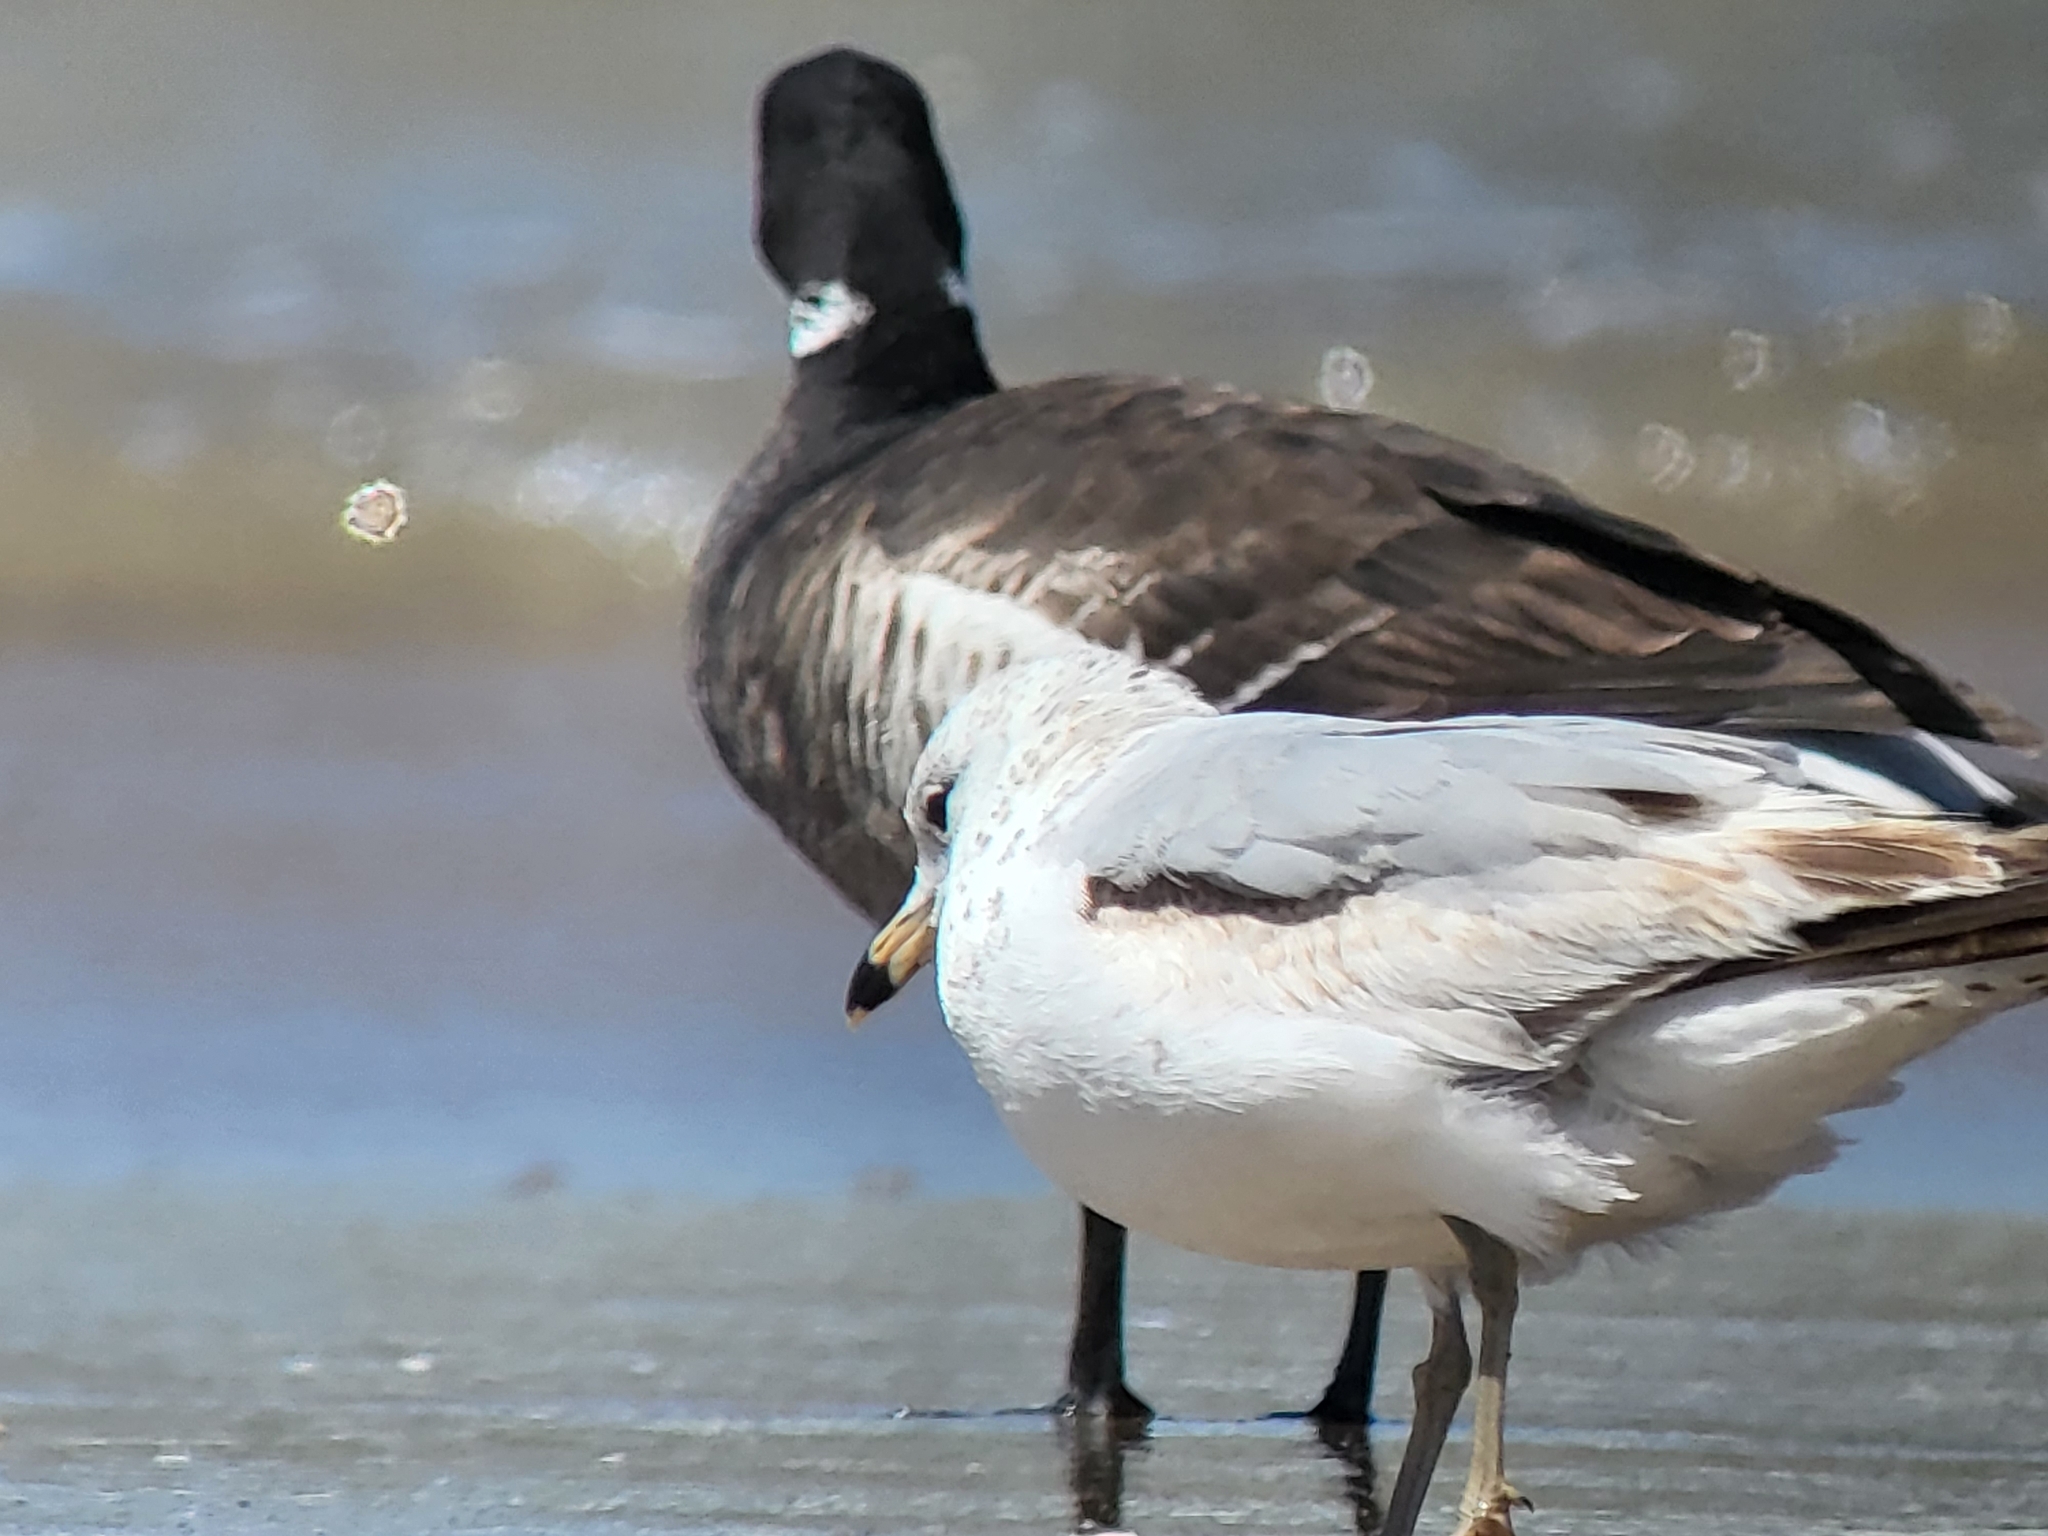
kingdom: Animalia
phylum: Chordata
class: Aves
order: Charadriiformes
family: Laridae
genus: Larus
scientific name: Larus delawarensis
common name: Ring-billed gull
